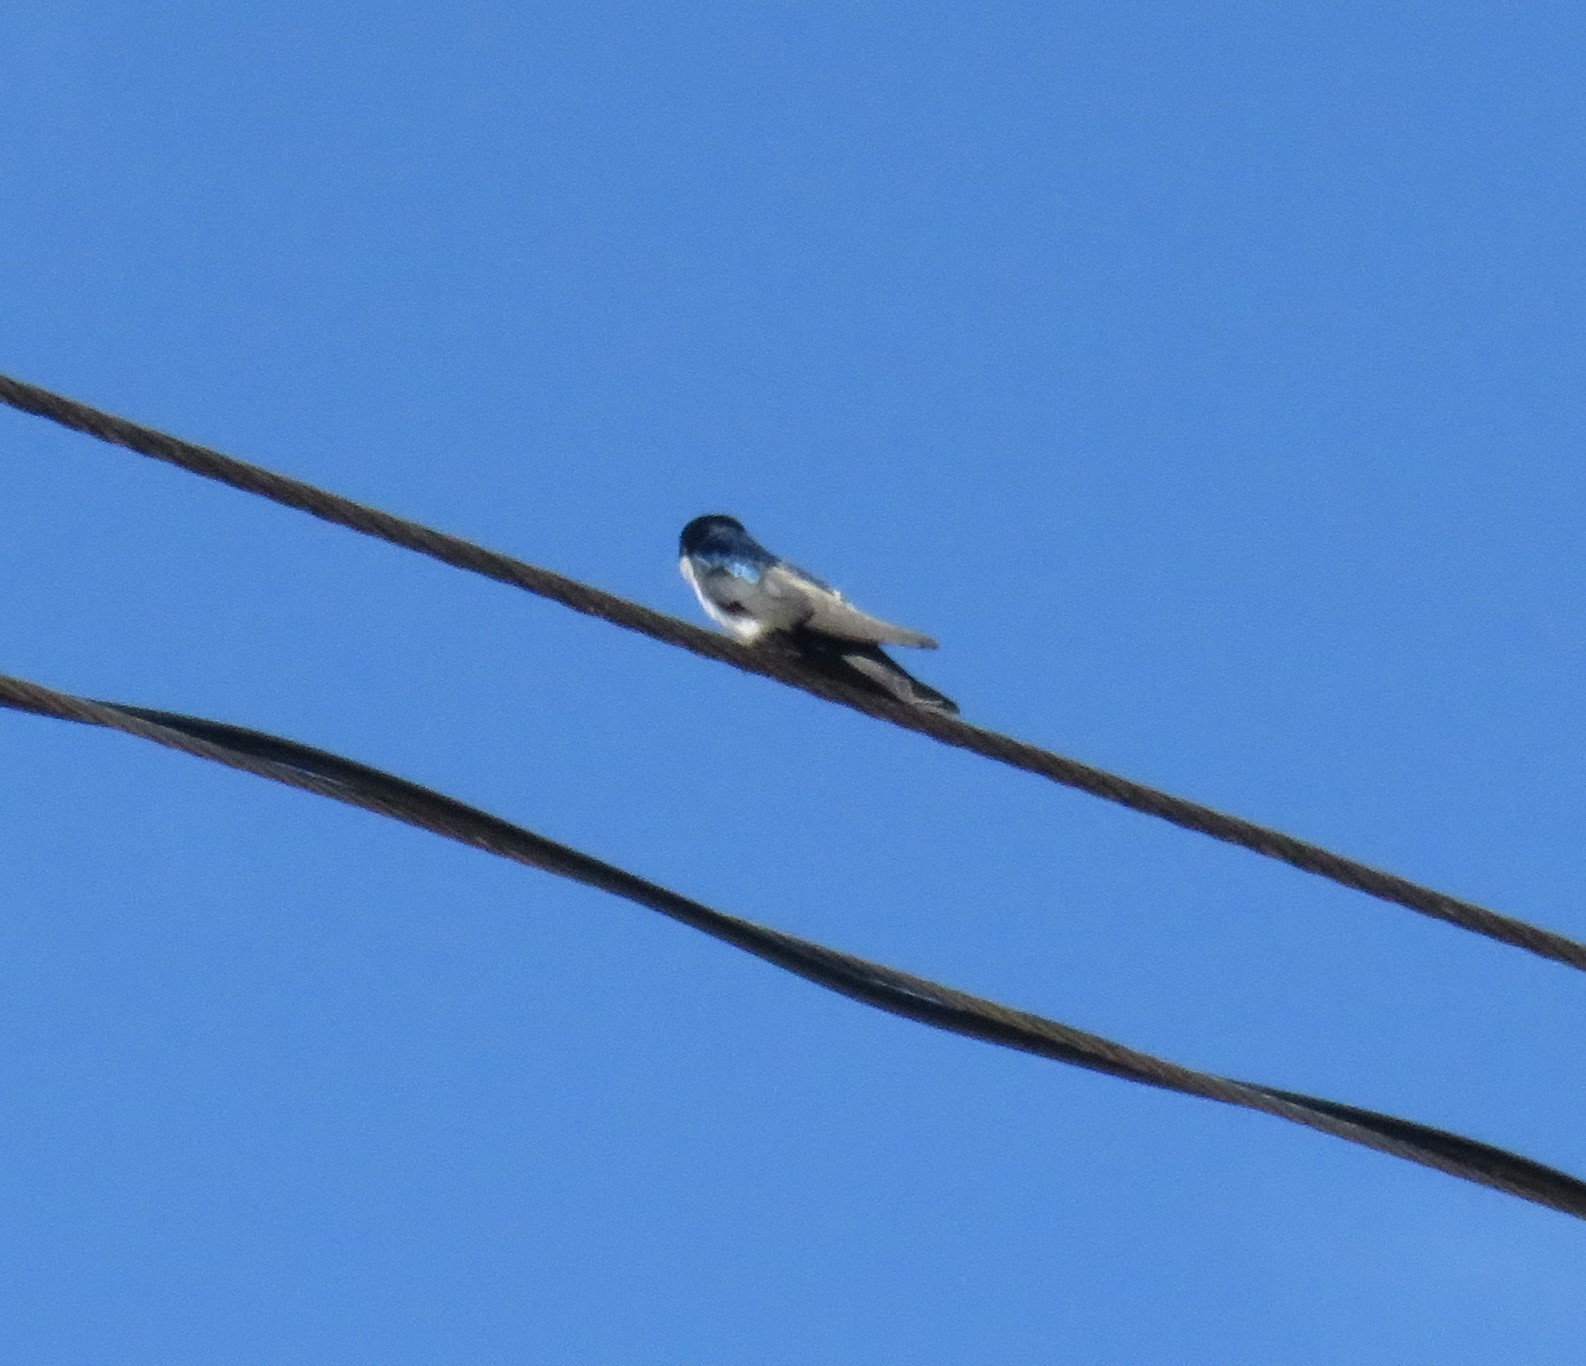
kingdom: Animalia
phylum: Chordata
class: Aves
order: Passeriformes
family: Hirundinidae
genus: Notiochelidon
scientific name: Notiochelidon cyanoleuca
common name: Blue-and-white swallow
